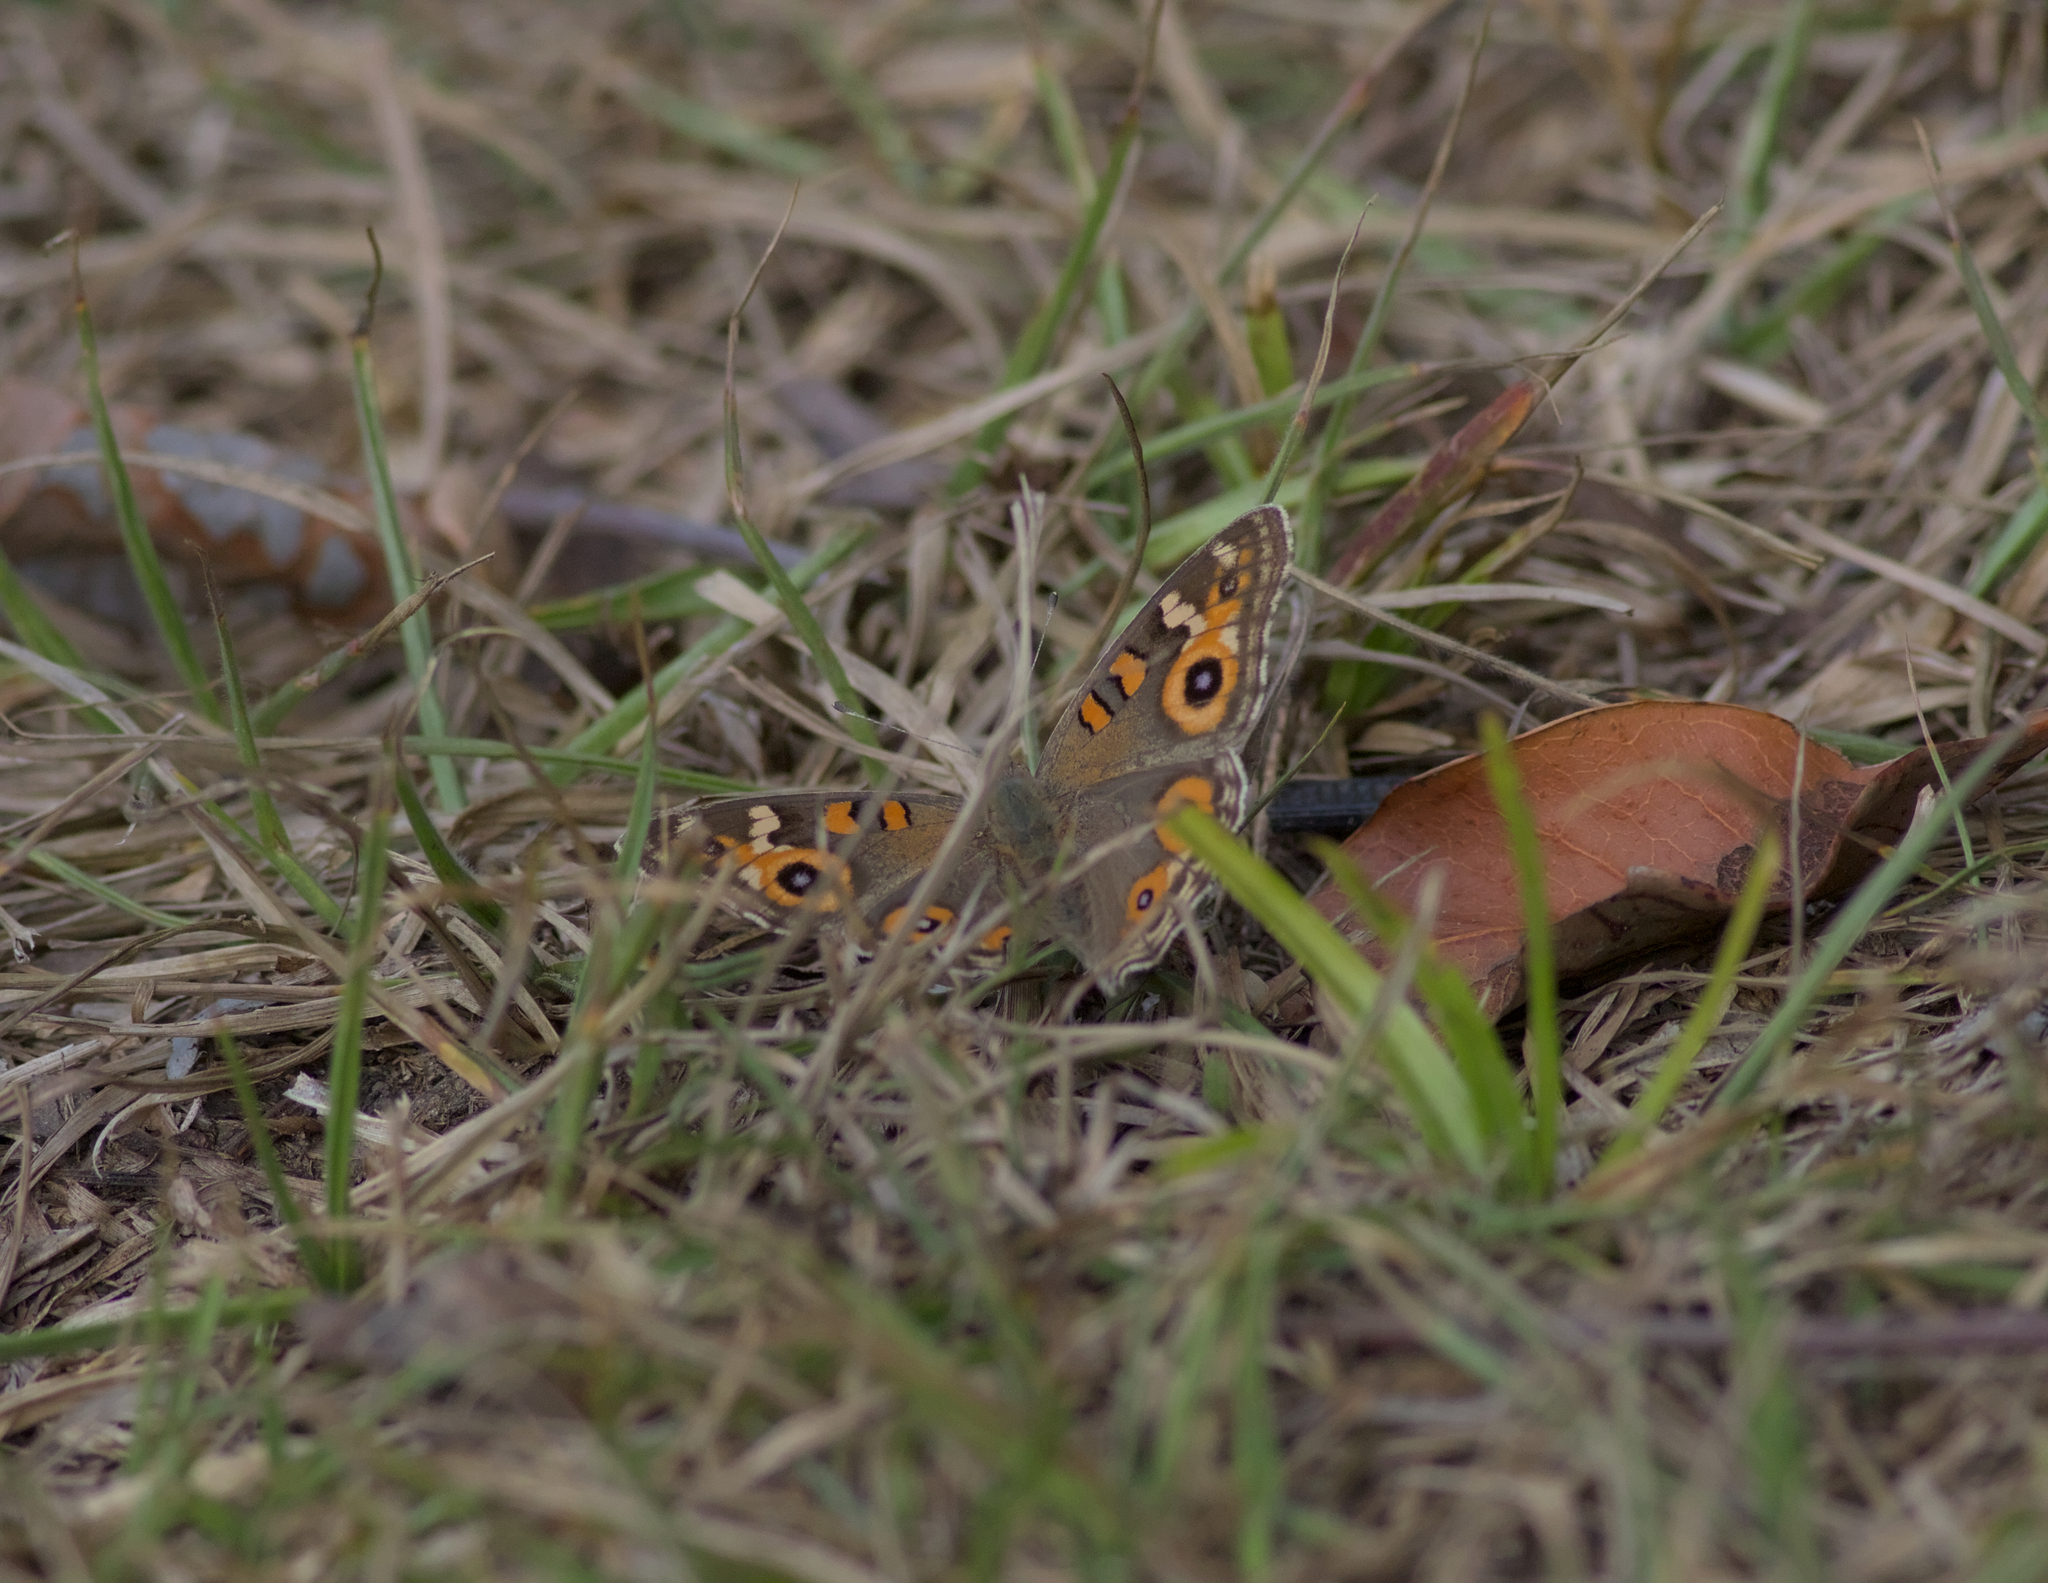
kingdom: Animalia
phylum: Arthropoda
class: Insecta
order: Lepidoptera
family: Nymphalidae
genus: Junonia
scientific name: Junonia villida
